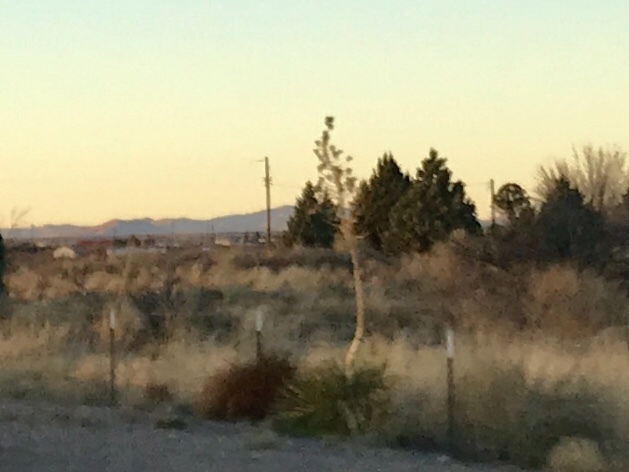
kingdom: Plantae
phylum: Tracheophyta
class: Liliopsida
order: Asparagales
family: Asparagaceae
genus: Yucca
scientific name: Yucca elata
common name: Palmella
